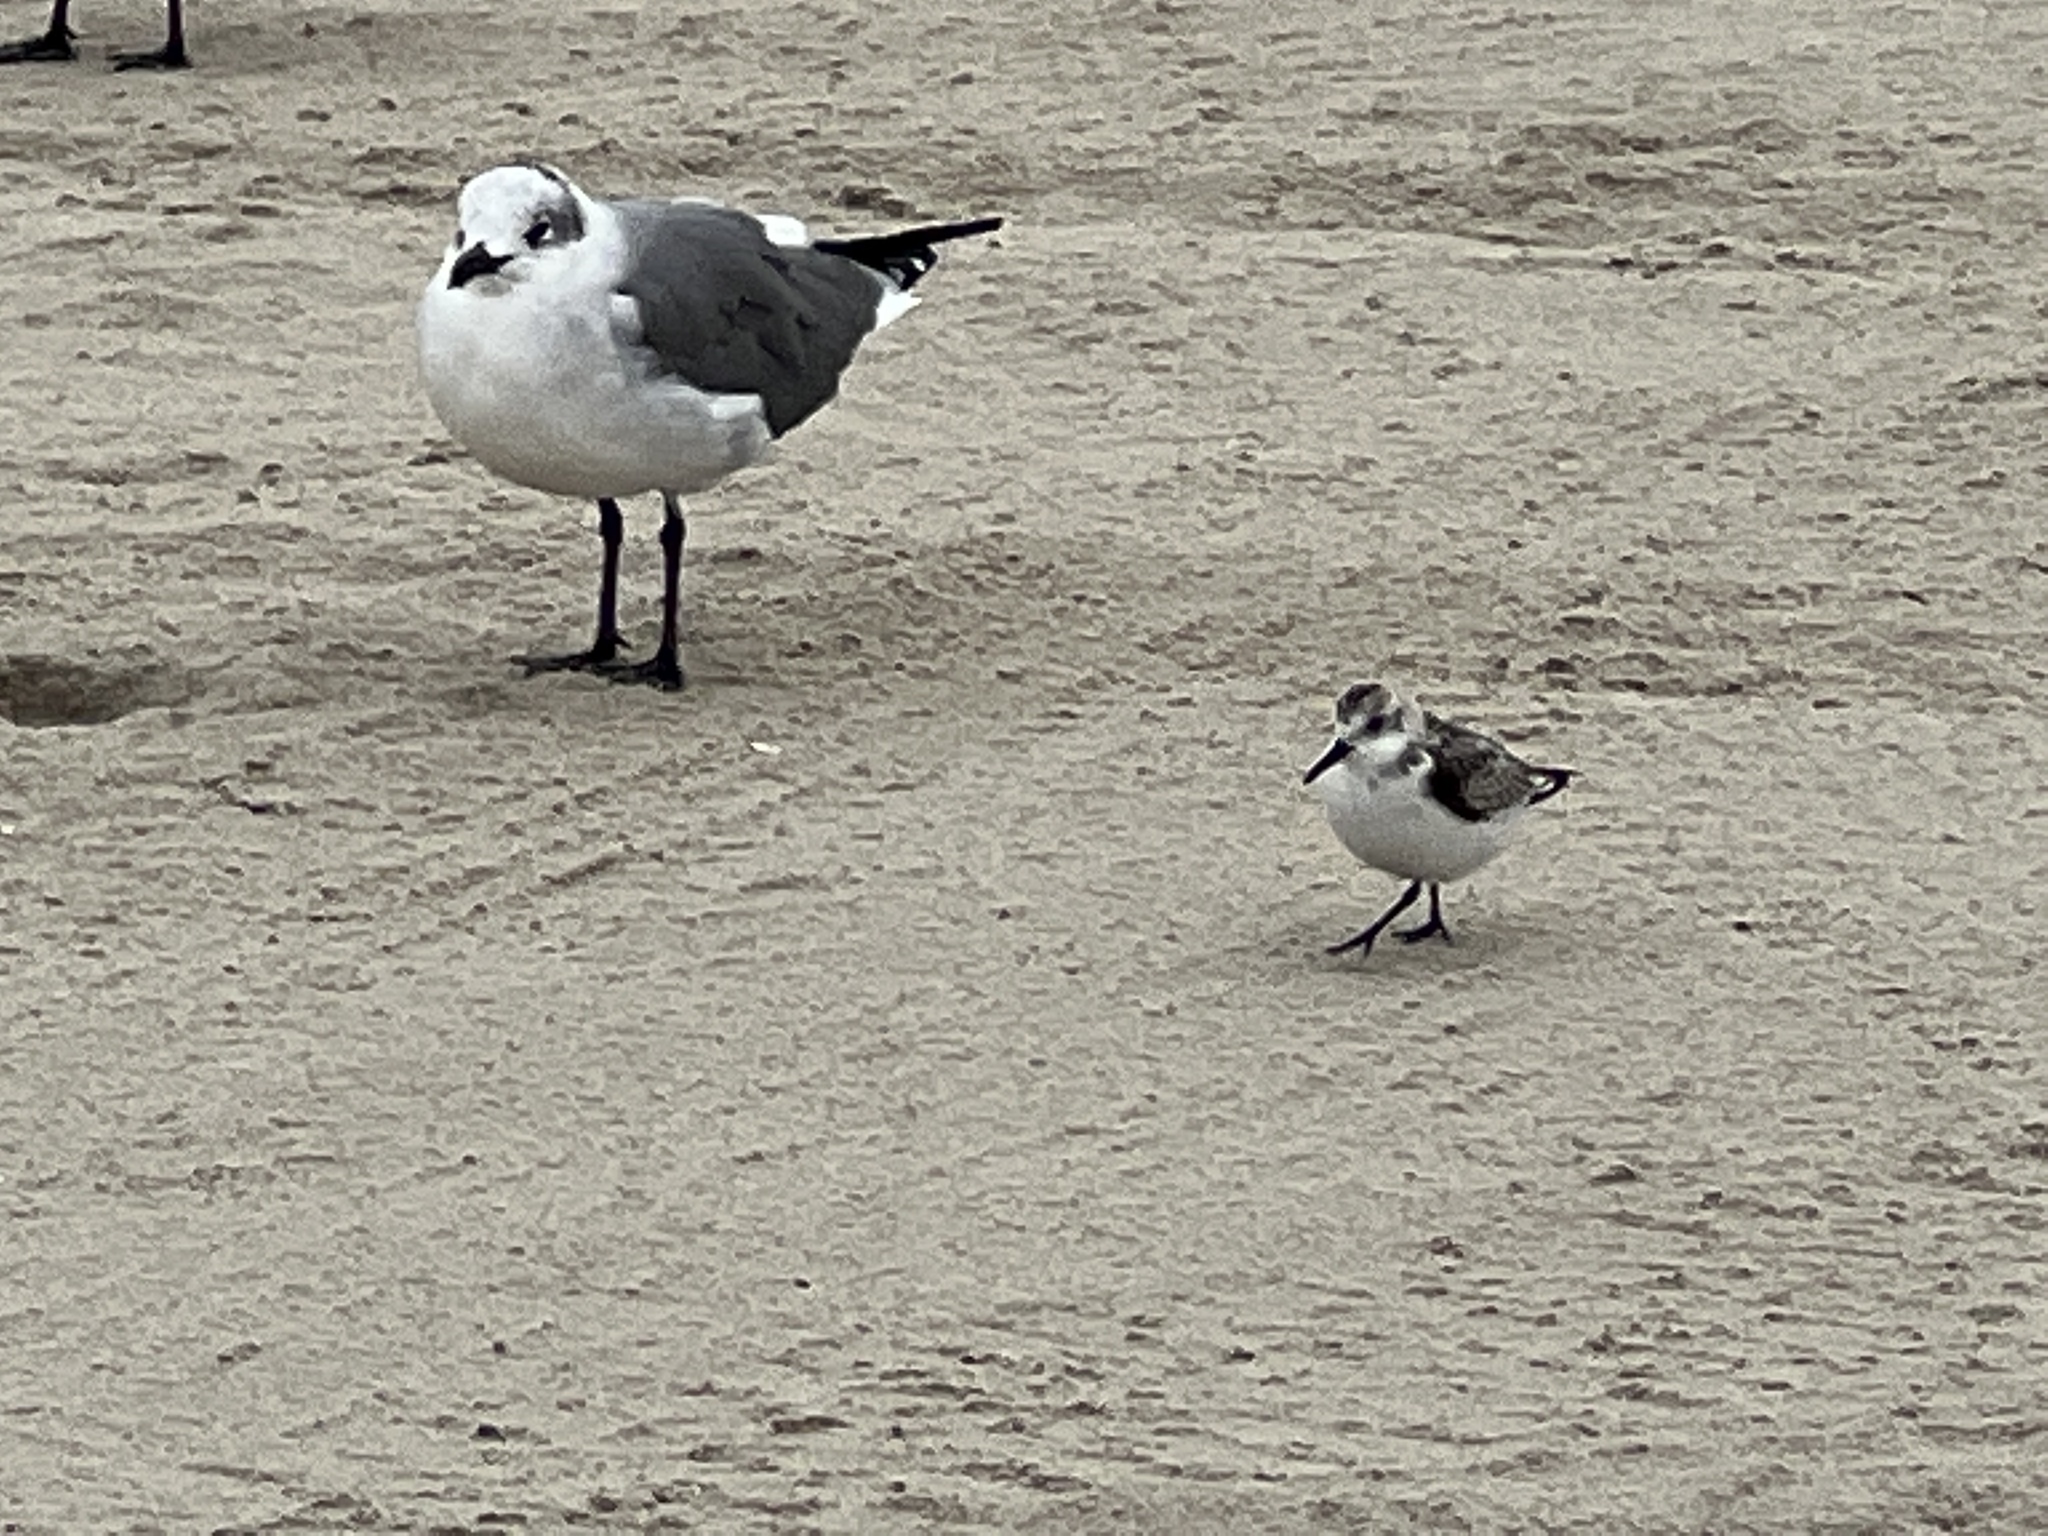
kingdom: Animalia
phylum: Chordata
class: Aves
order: Charadriiformes
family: Scolopacidae
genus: Calidris
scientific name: Calidris alba
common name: Sanderling
